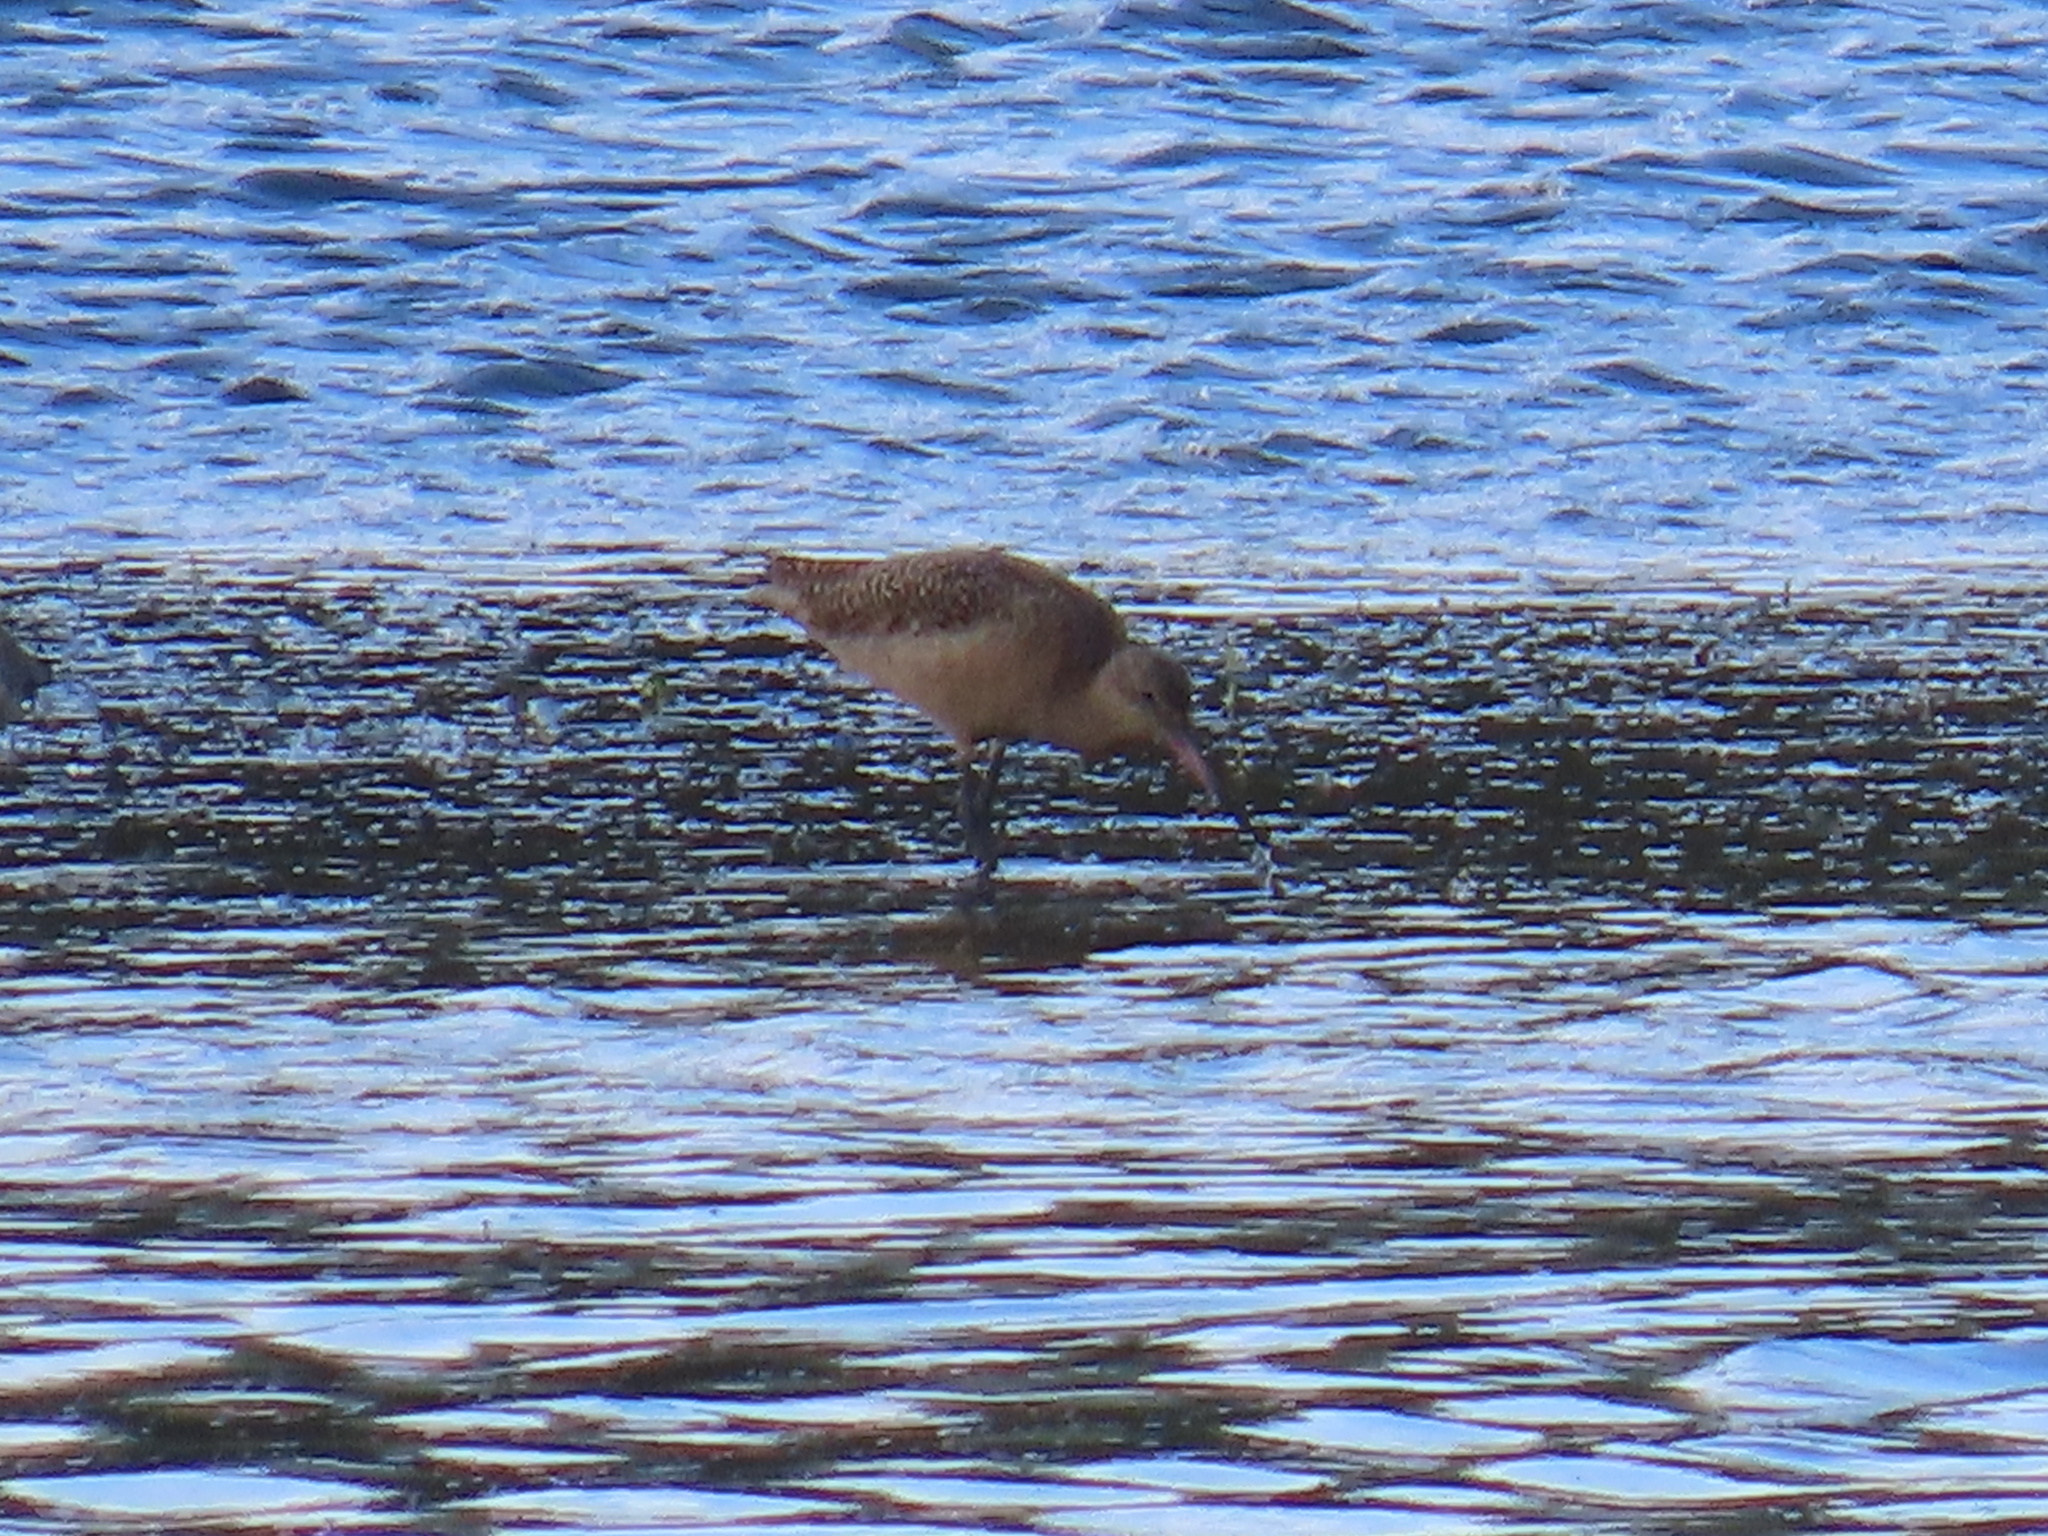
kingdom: Animalia
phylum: Chordata
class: Aves
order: Charadriiformes
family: Scolopacidae
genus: Limosa
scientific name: Limosa fedoa
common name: Marbled godwit
